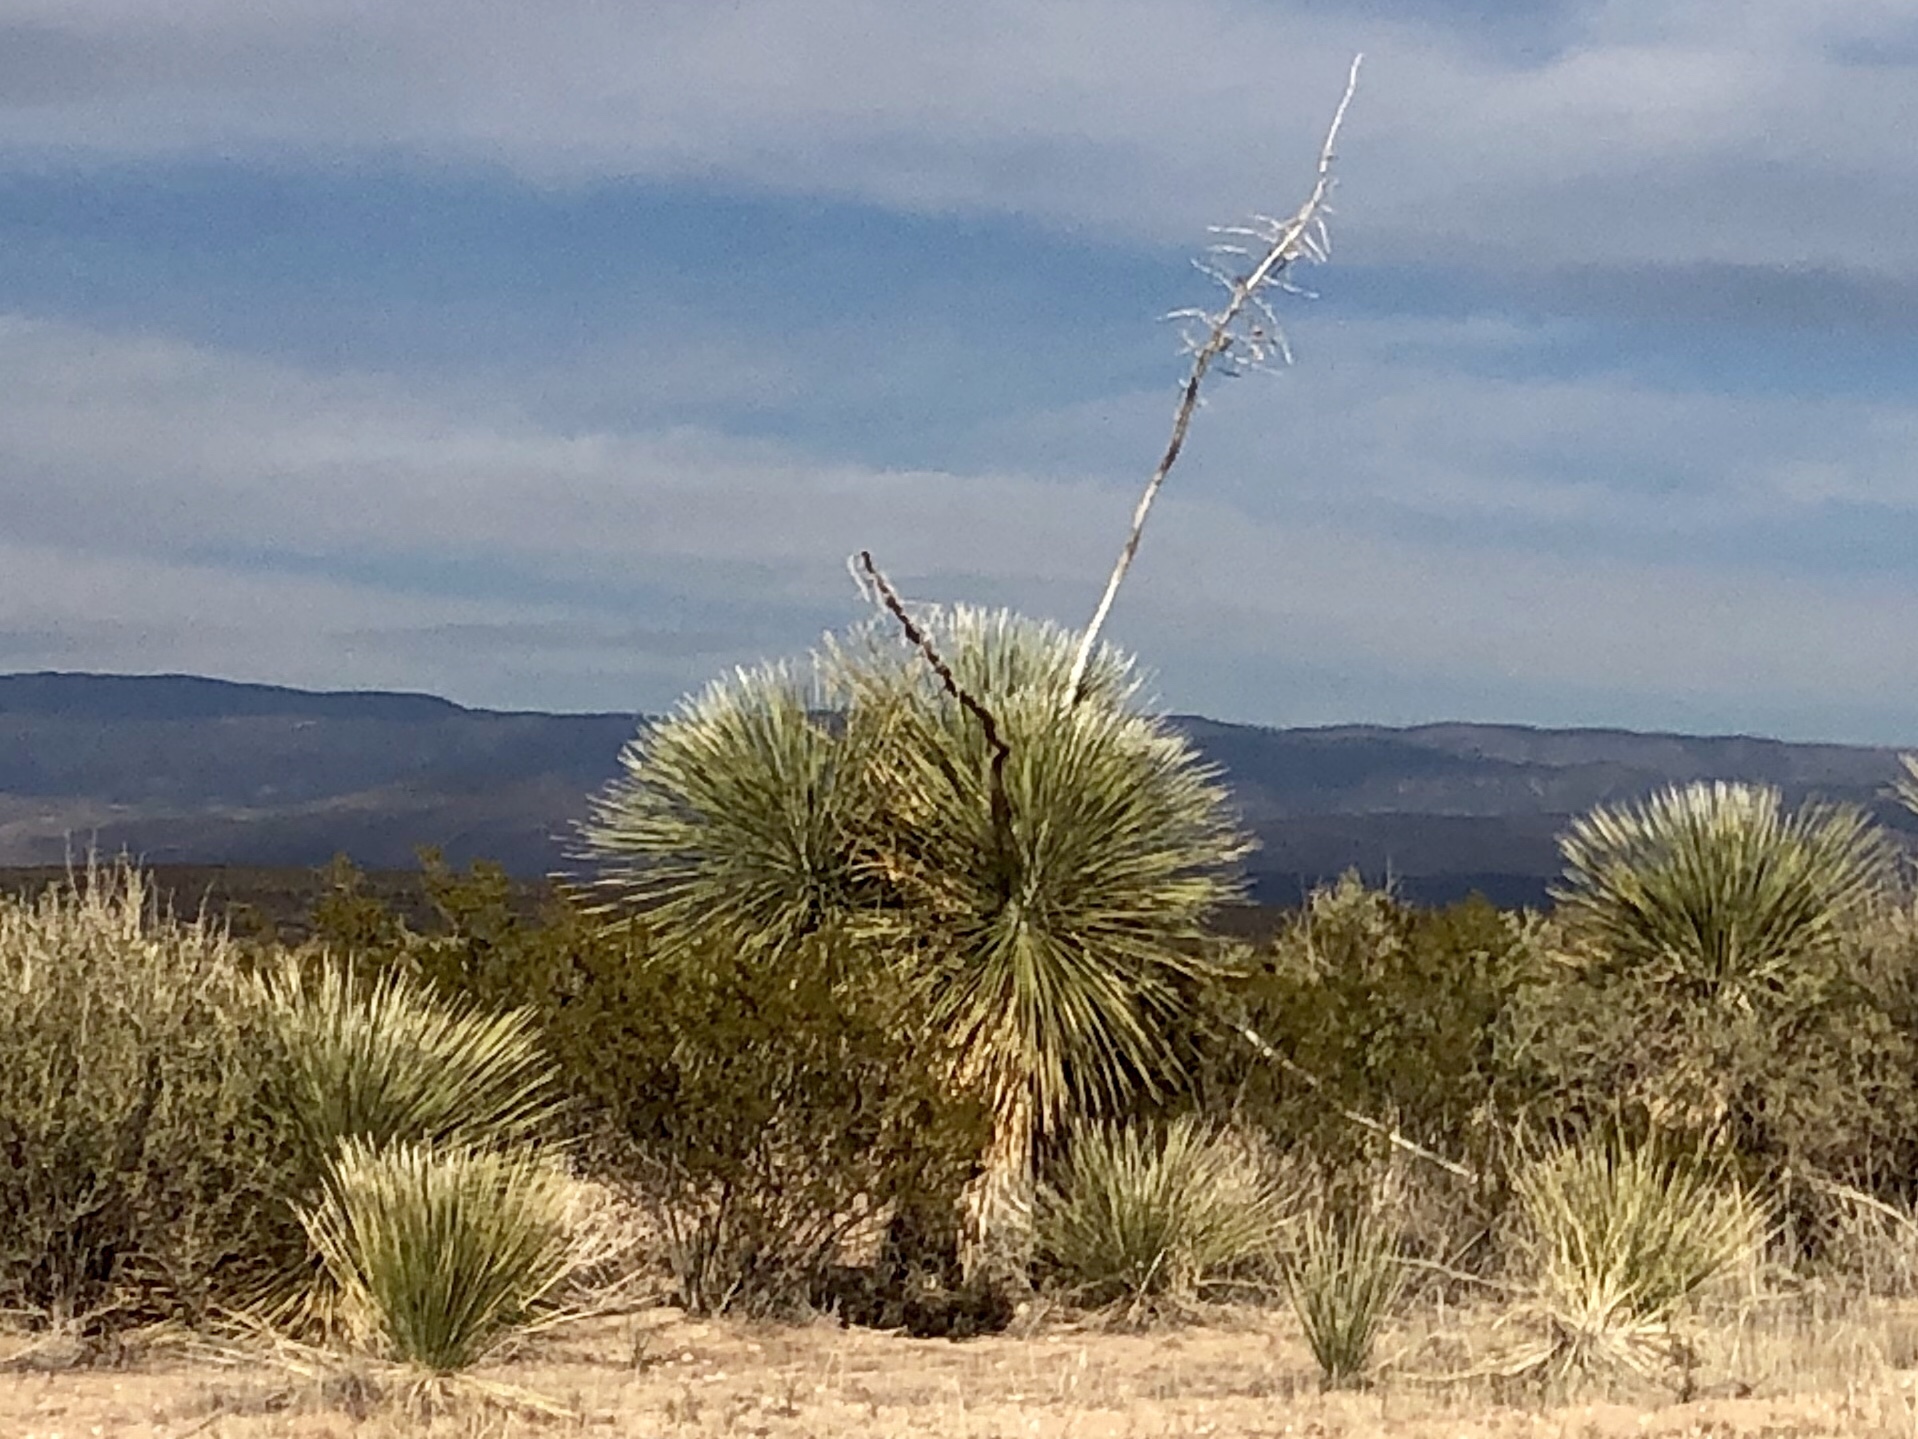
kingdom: Plantae
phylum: Tracheophyta
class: Liliopsida
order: Asparagales
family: Asparagaceae
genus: Yucca
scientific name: Yucca elata
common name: Palmella
